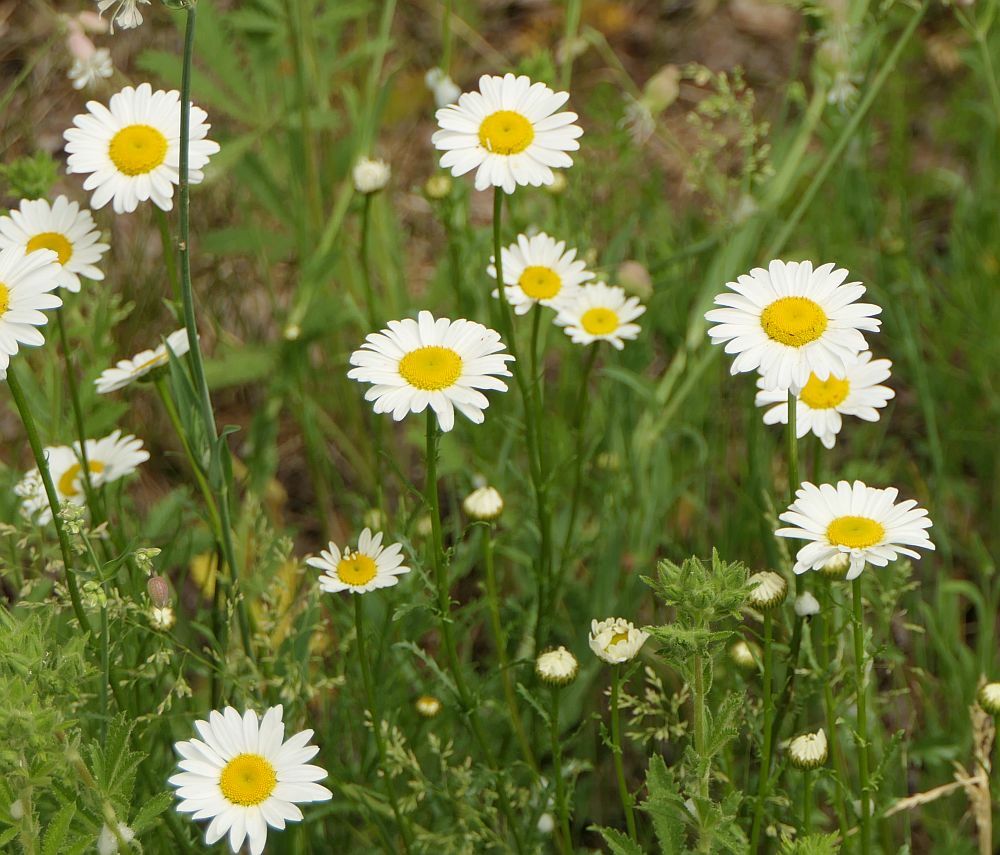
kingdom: Plantae
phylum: Tracheophyta
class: Magnoliopsida
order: Asterales
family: Asteraceae
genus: Leucanthemum
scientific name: Leucanthemum vulgare
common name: Oxeye daisy
